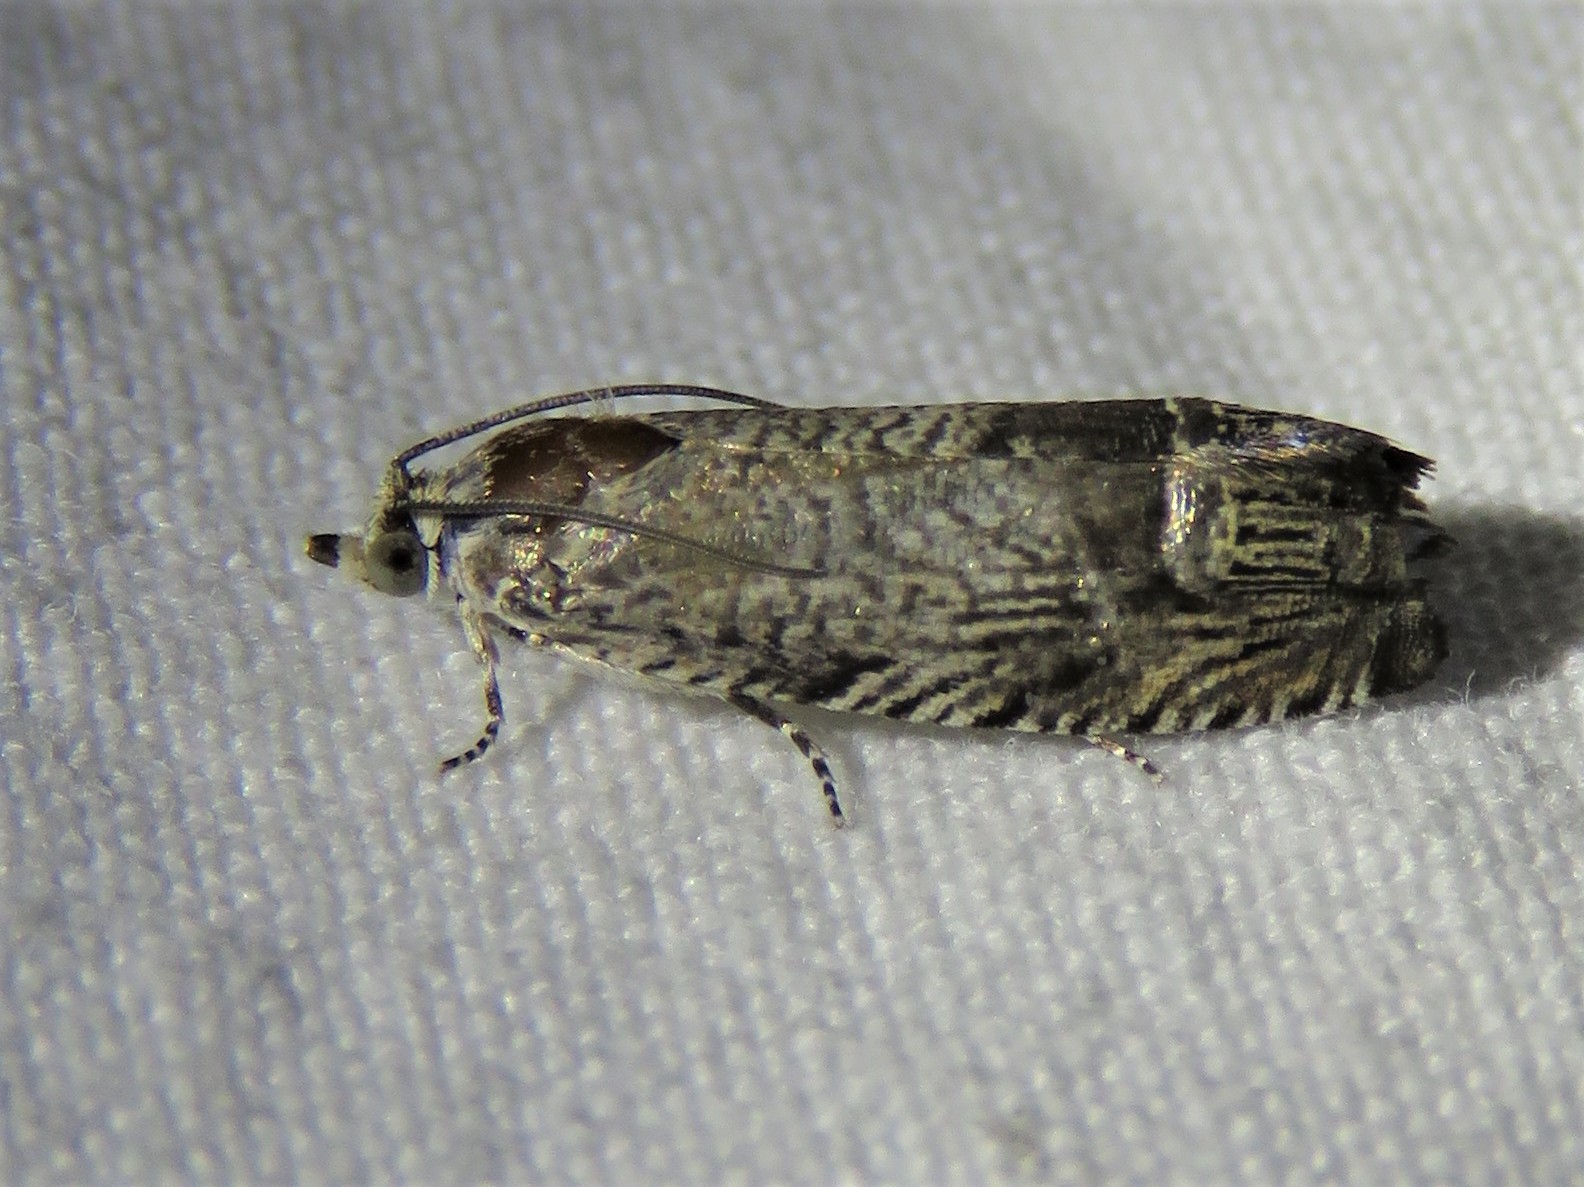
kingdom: Animalia
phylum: Arthropoda
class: Insecta
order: Lepidoptera
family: Tortricidae
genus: Ofatulena
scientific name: Ofatulena duodecemstriata
